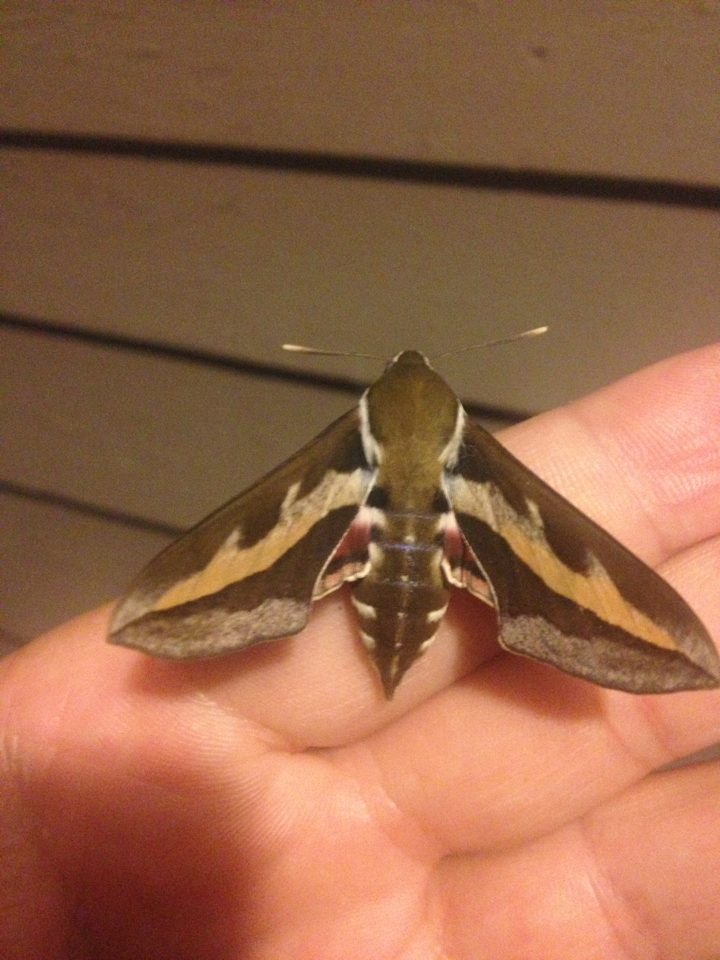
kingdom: Animalia
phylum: Arthropoda
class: Insecta
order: Lepidoptera
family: Sphingidae
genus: Hyles
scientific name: Hyles gallii
